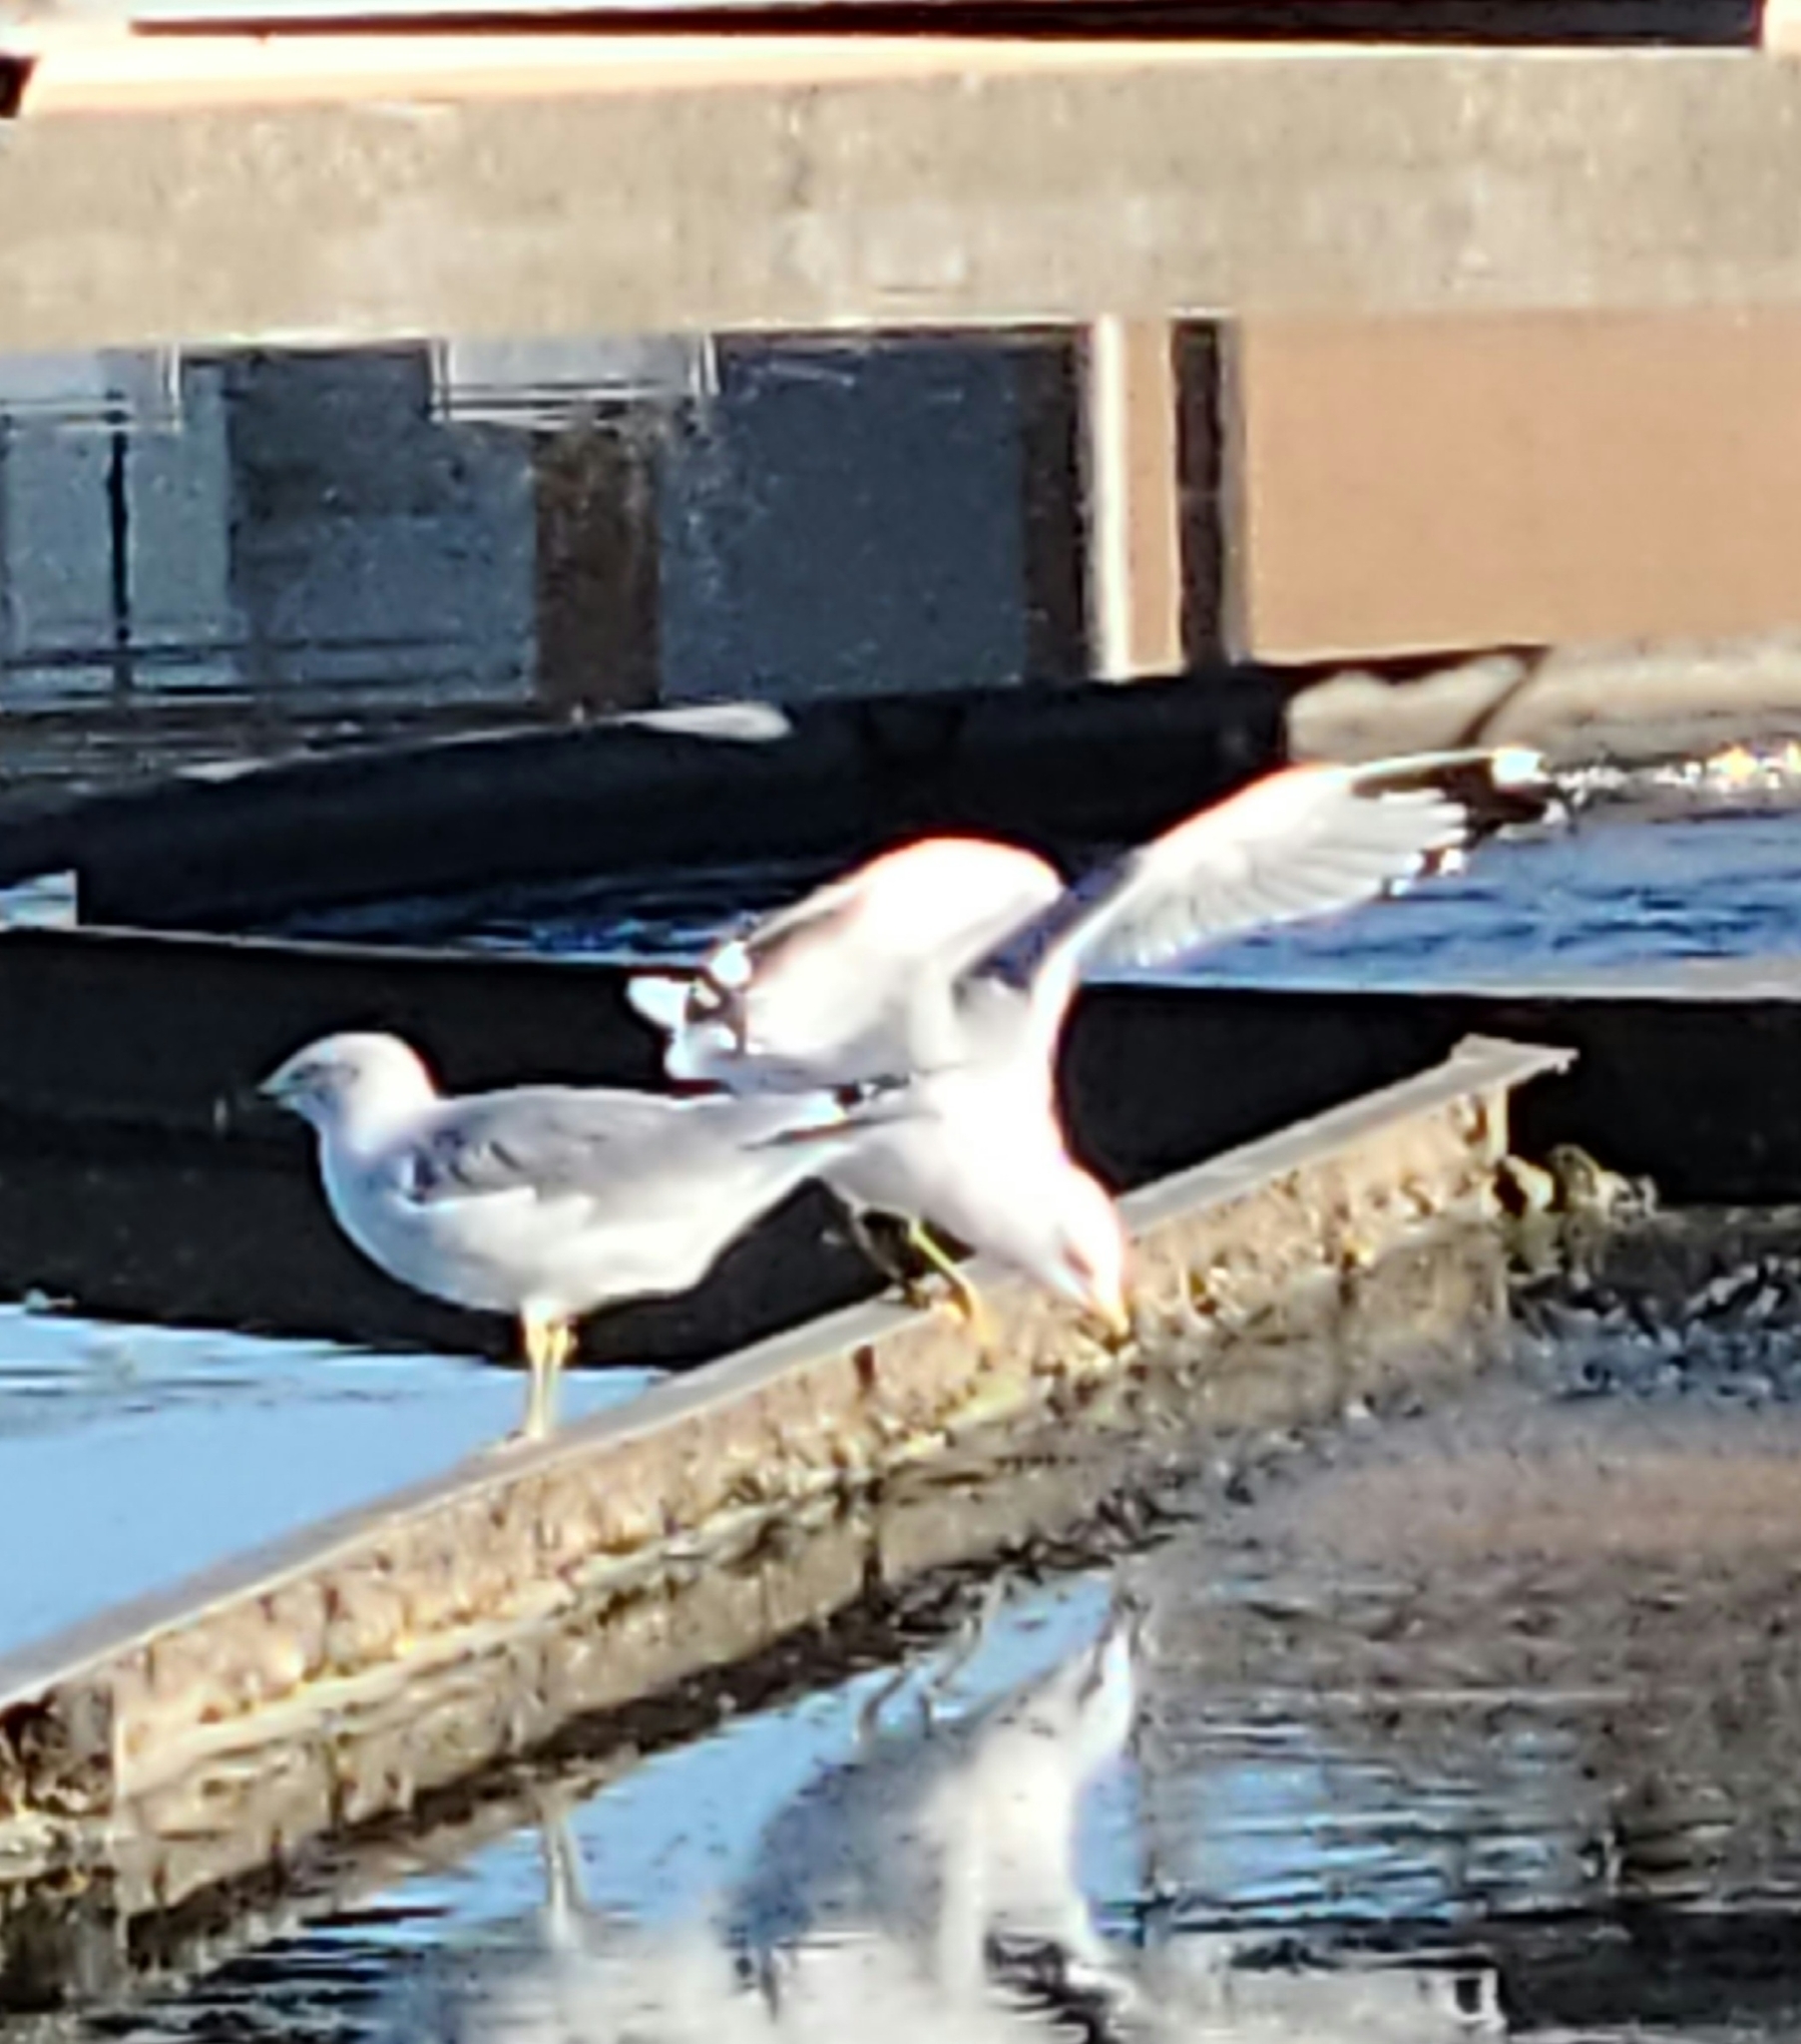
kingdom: Animalia
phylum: Chordata
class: Aves
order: Charadriiformes
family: Laridae
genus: Larus
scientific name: Larus delawarensis
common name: Ring-billed gull
